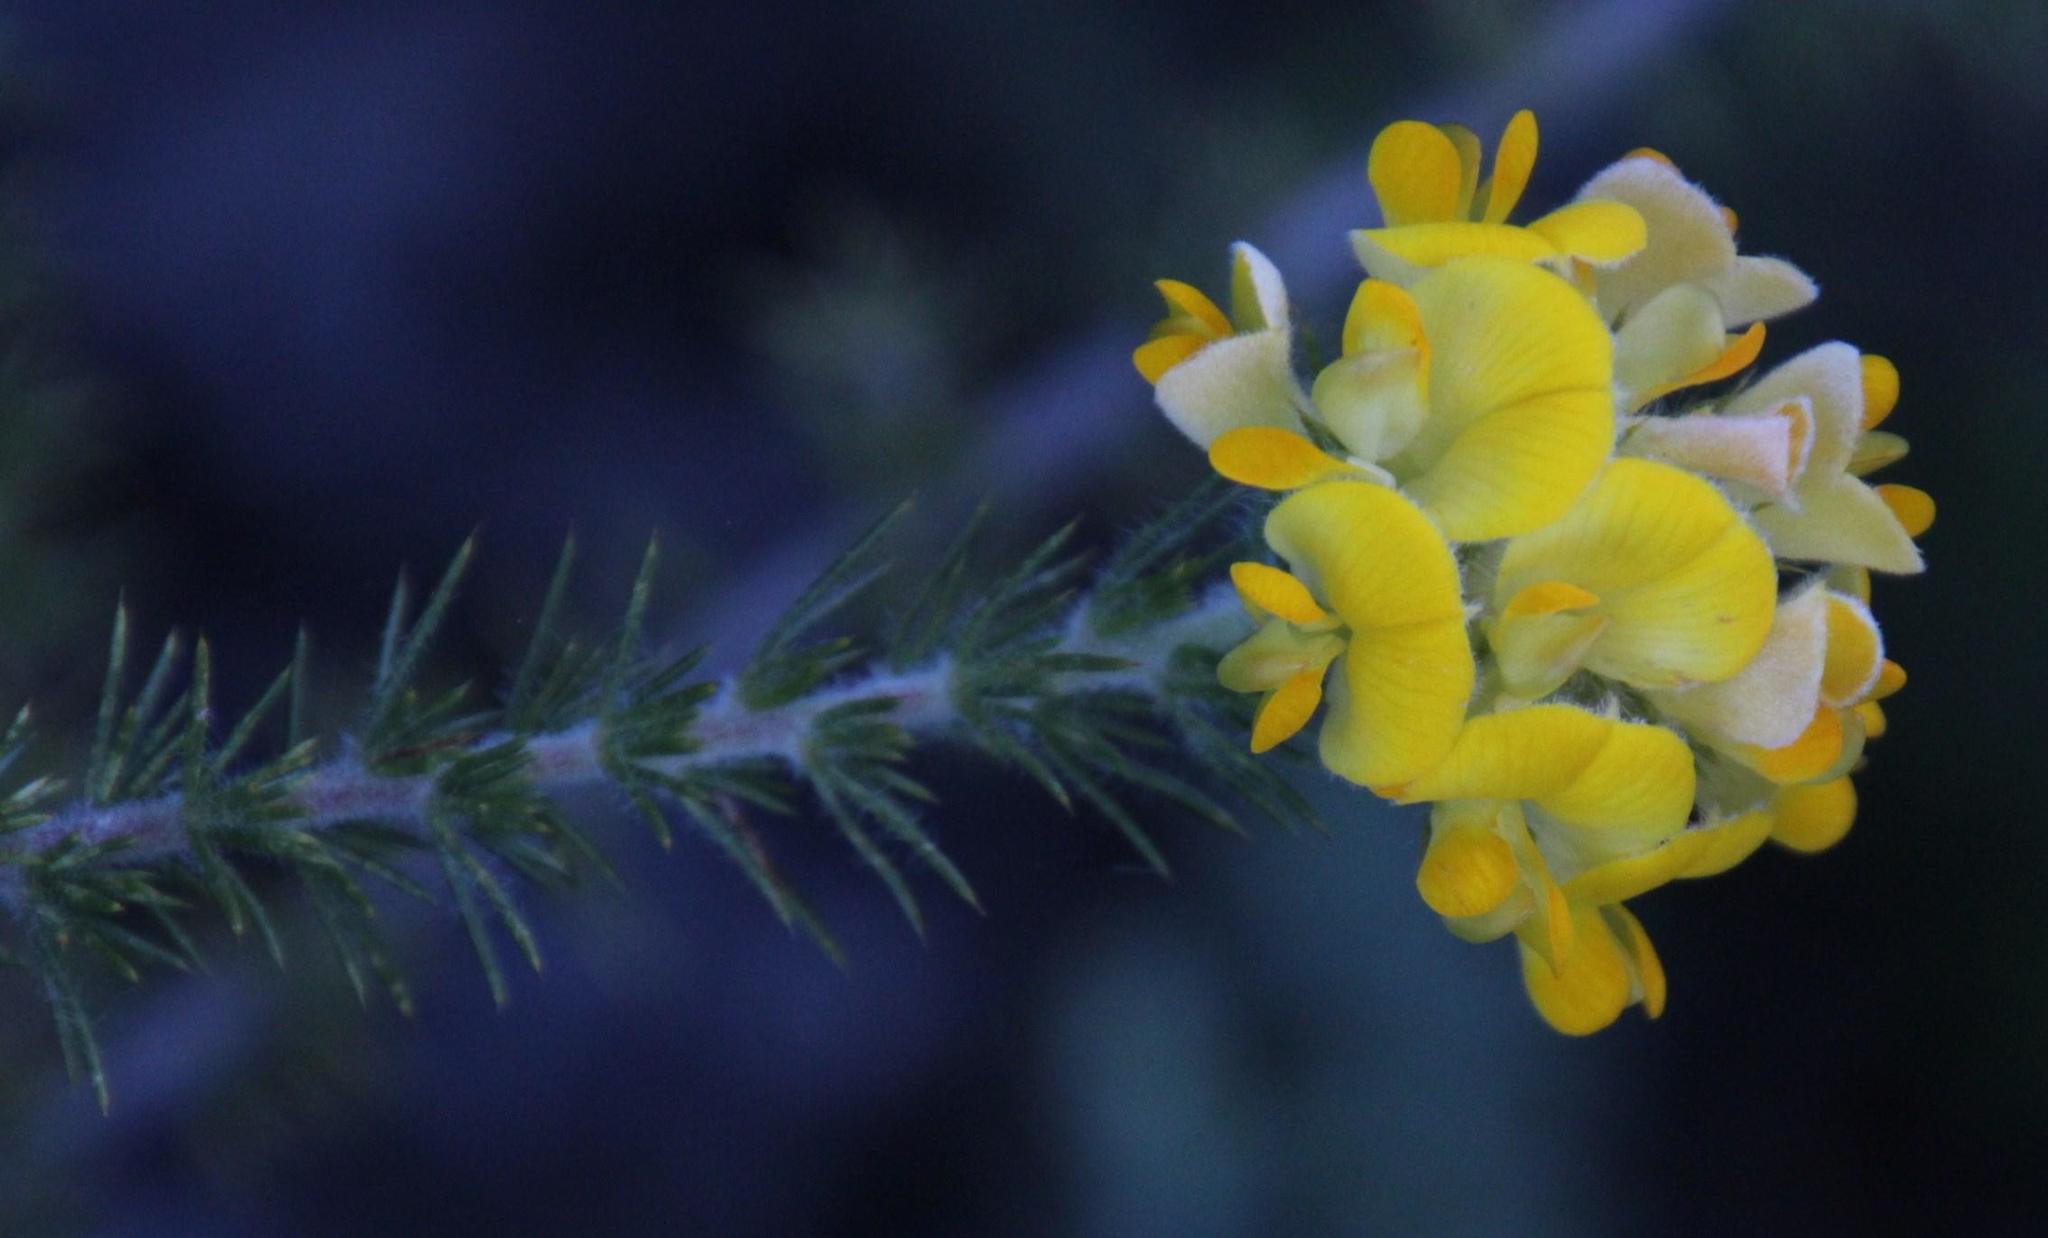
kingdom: Plantae
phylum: Tracheophyta
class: Magnoliopsida
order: Fabales
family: Fabaceae
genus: Aspalathus
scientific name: Aspalathus chenopoda
